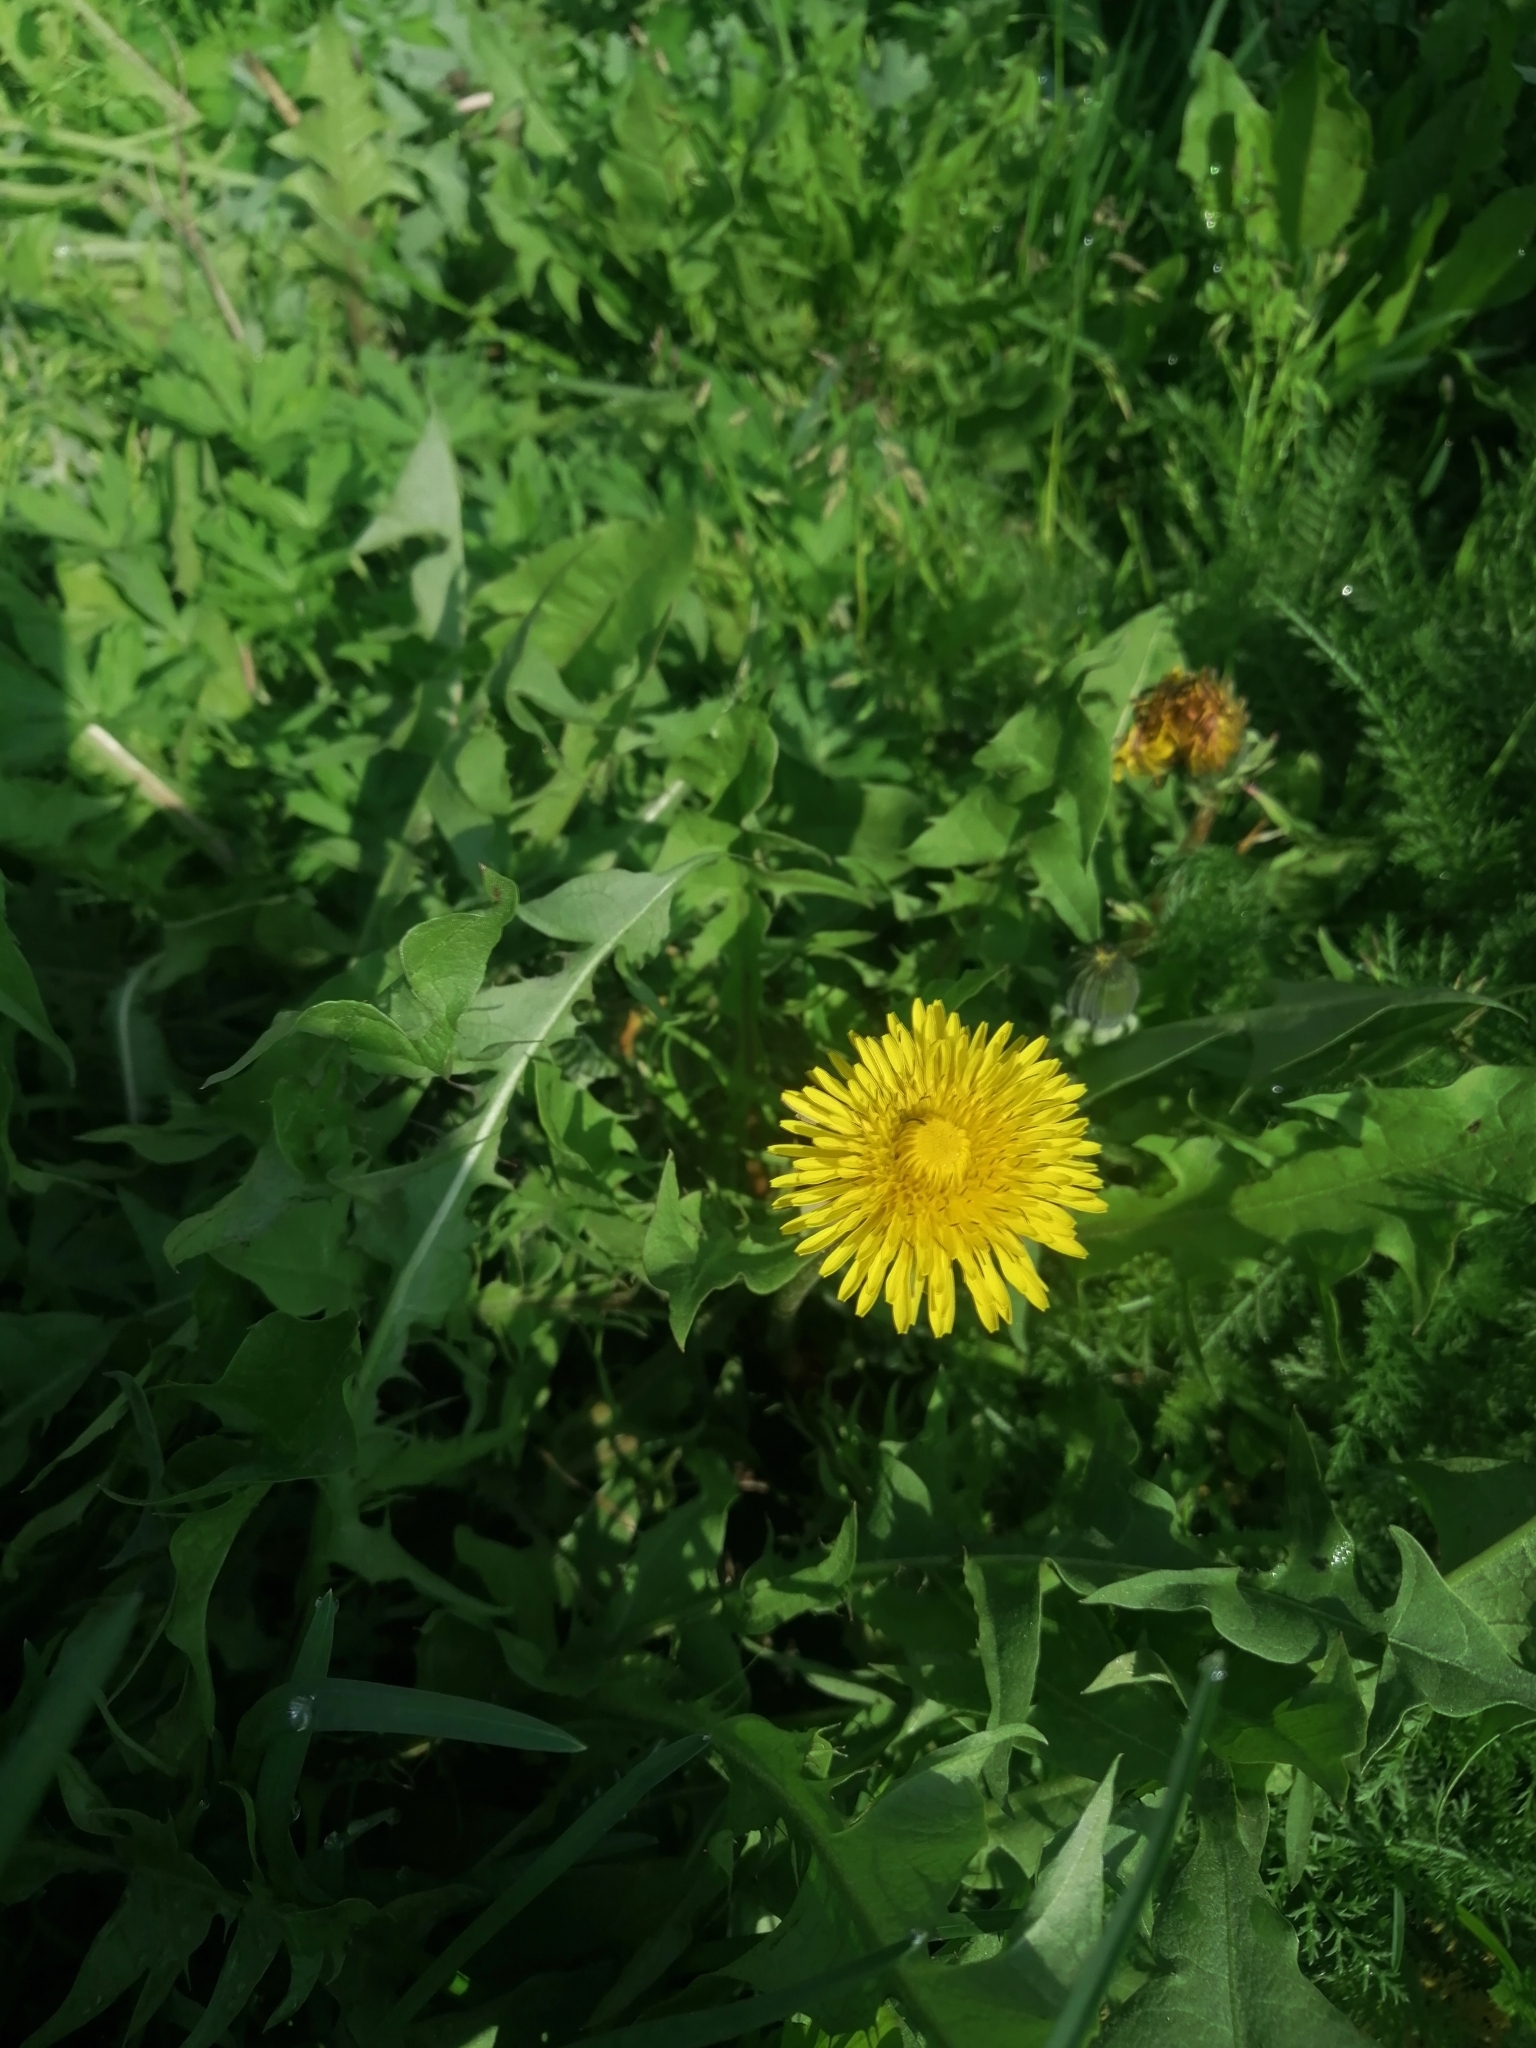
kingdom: Plantae
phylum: Tracheophyta
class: Magnoliopsida
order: Asterales
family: Asteraceae
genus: Taraxacum
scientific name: Taraxacum
